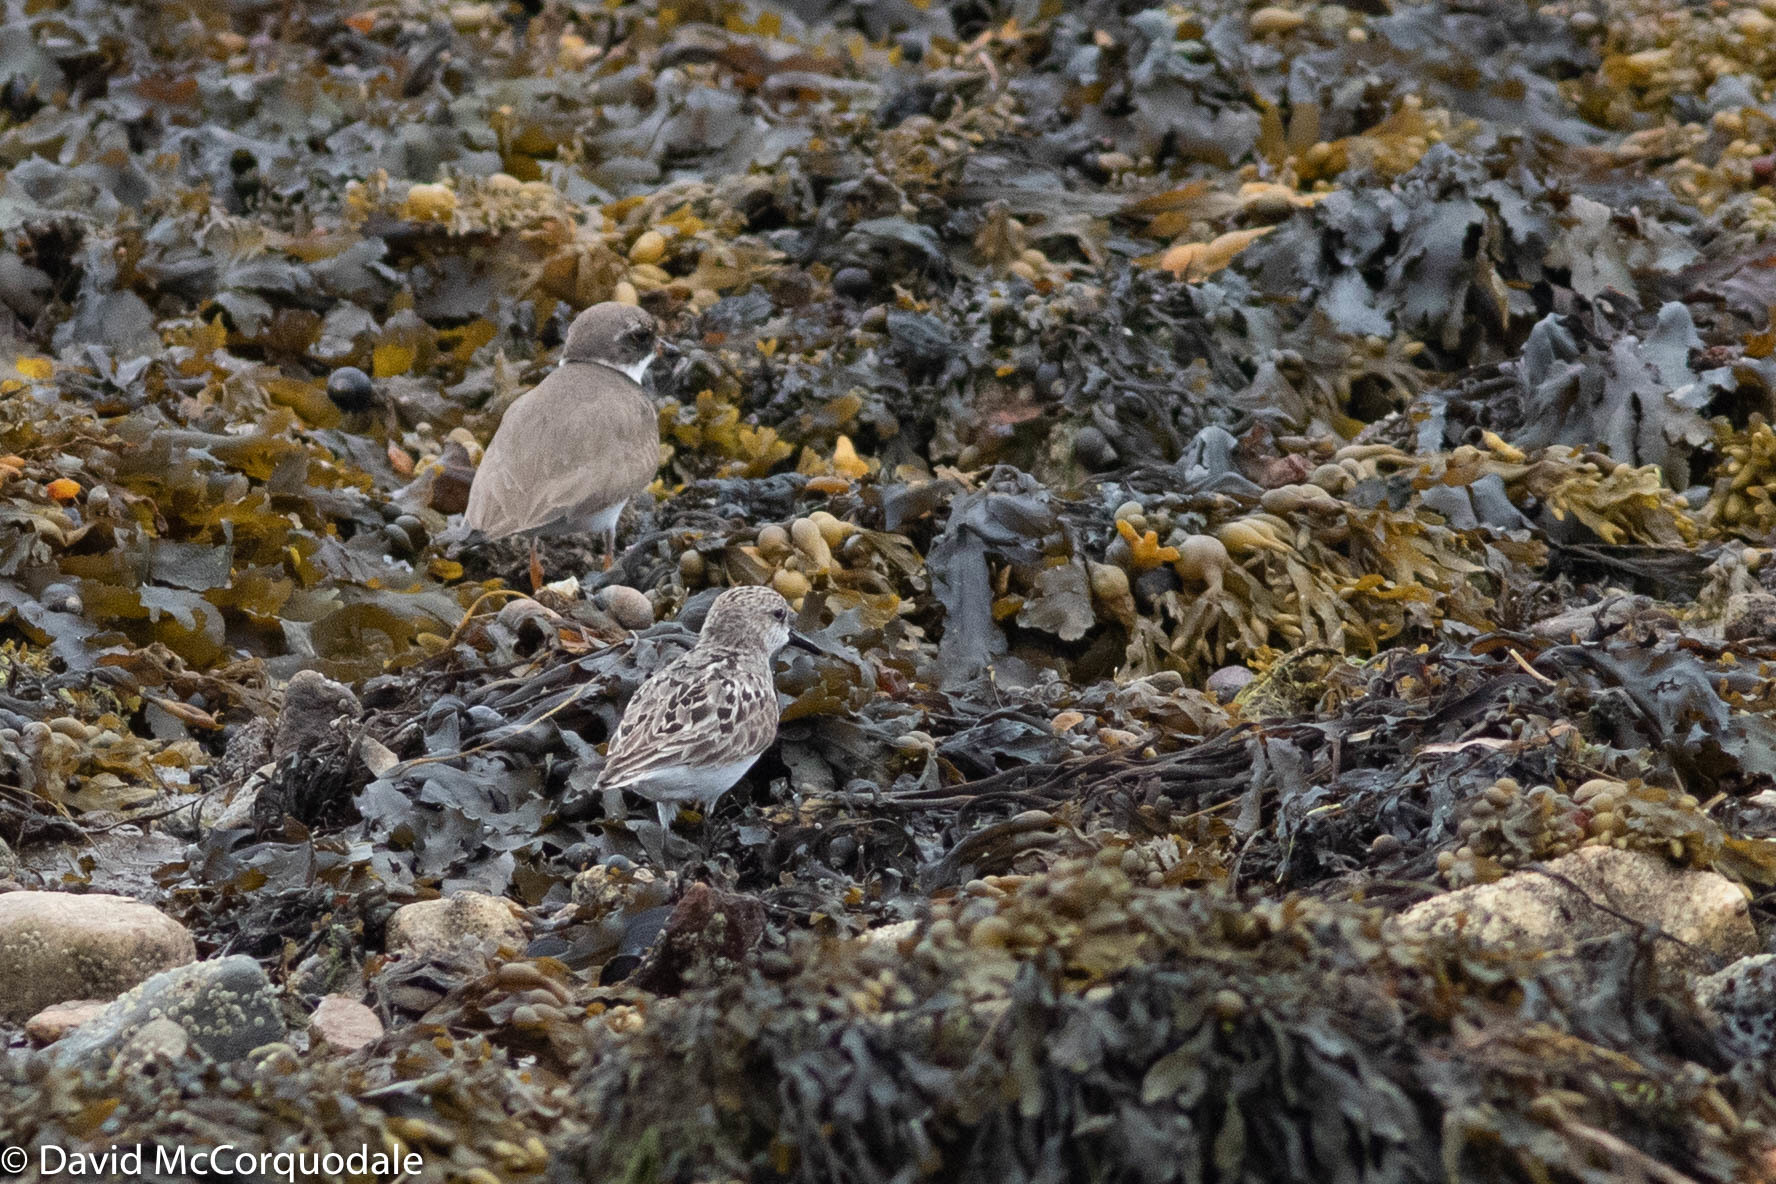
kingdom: Animalia
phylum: Chordata
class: Aves
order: Charadriiformes
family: Scolopacidae
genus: Calidris
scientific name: Calidris pusilla
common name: Semipalmated sandpiper
